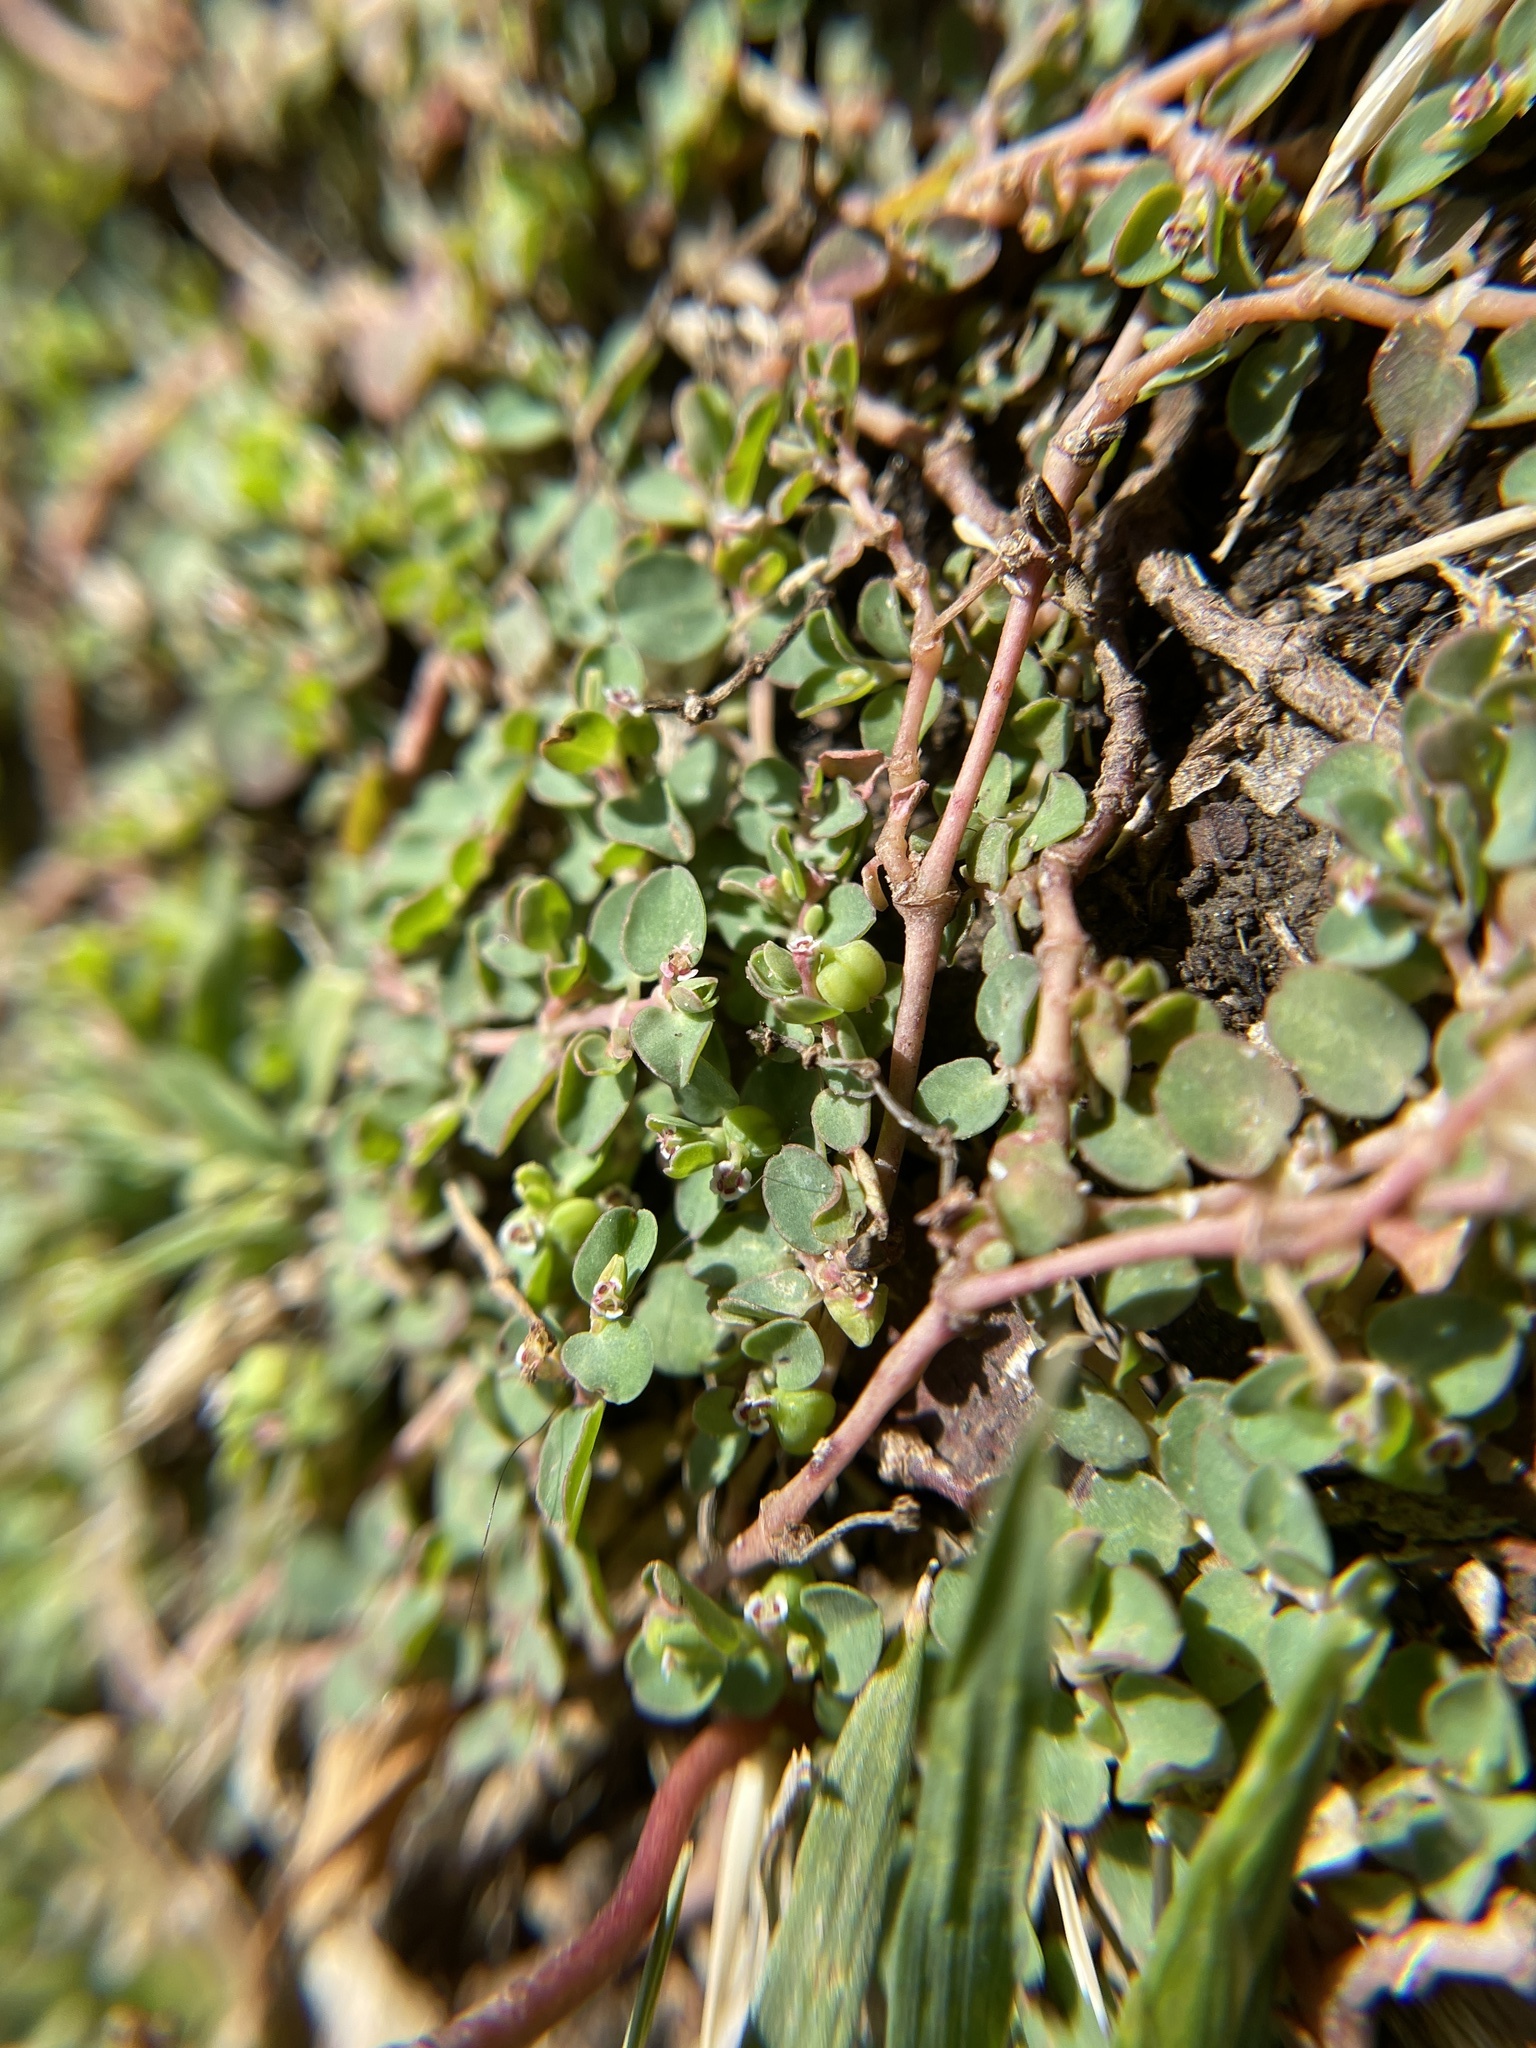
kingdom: Plantae
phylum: Tracheophyta
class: Magnoliopsida
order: Malpighiales
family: Euphorbiaceae
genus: Euphorbia
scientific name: Euphorbia serpens
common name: Matted sandmat
